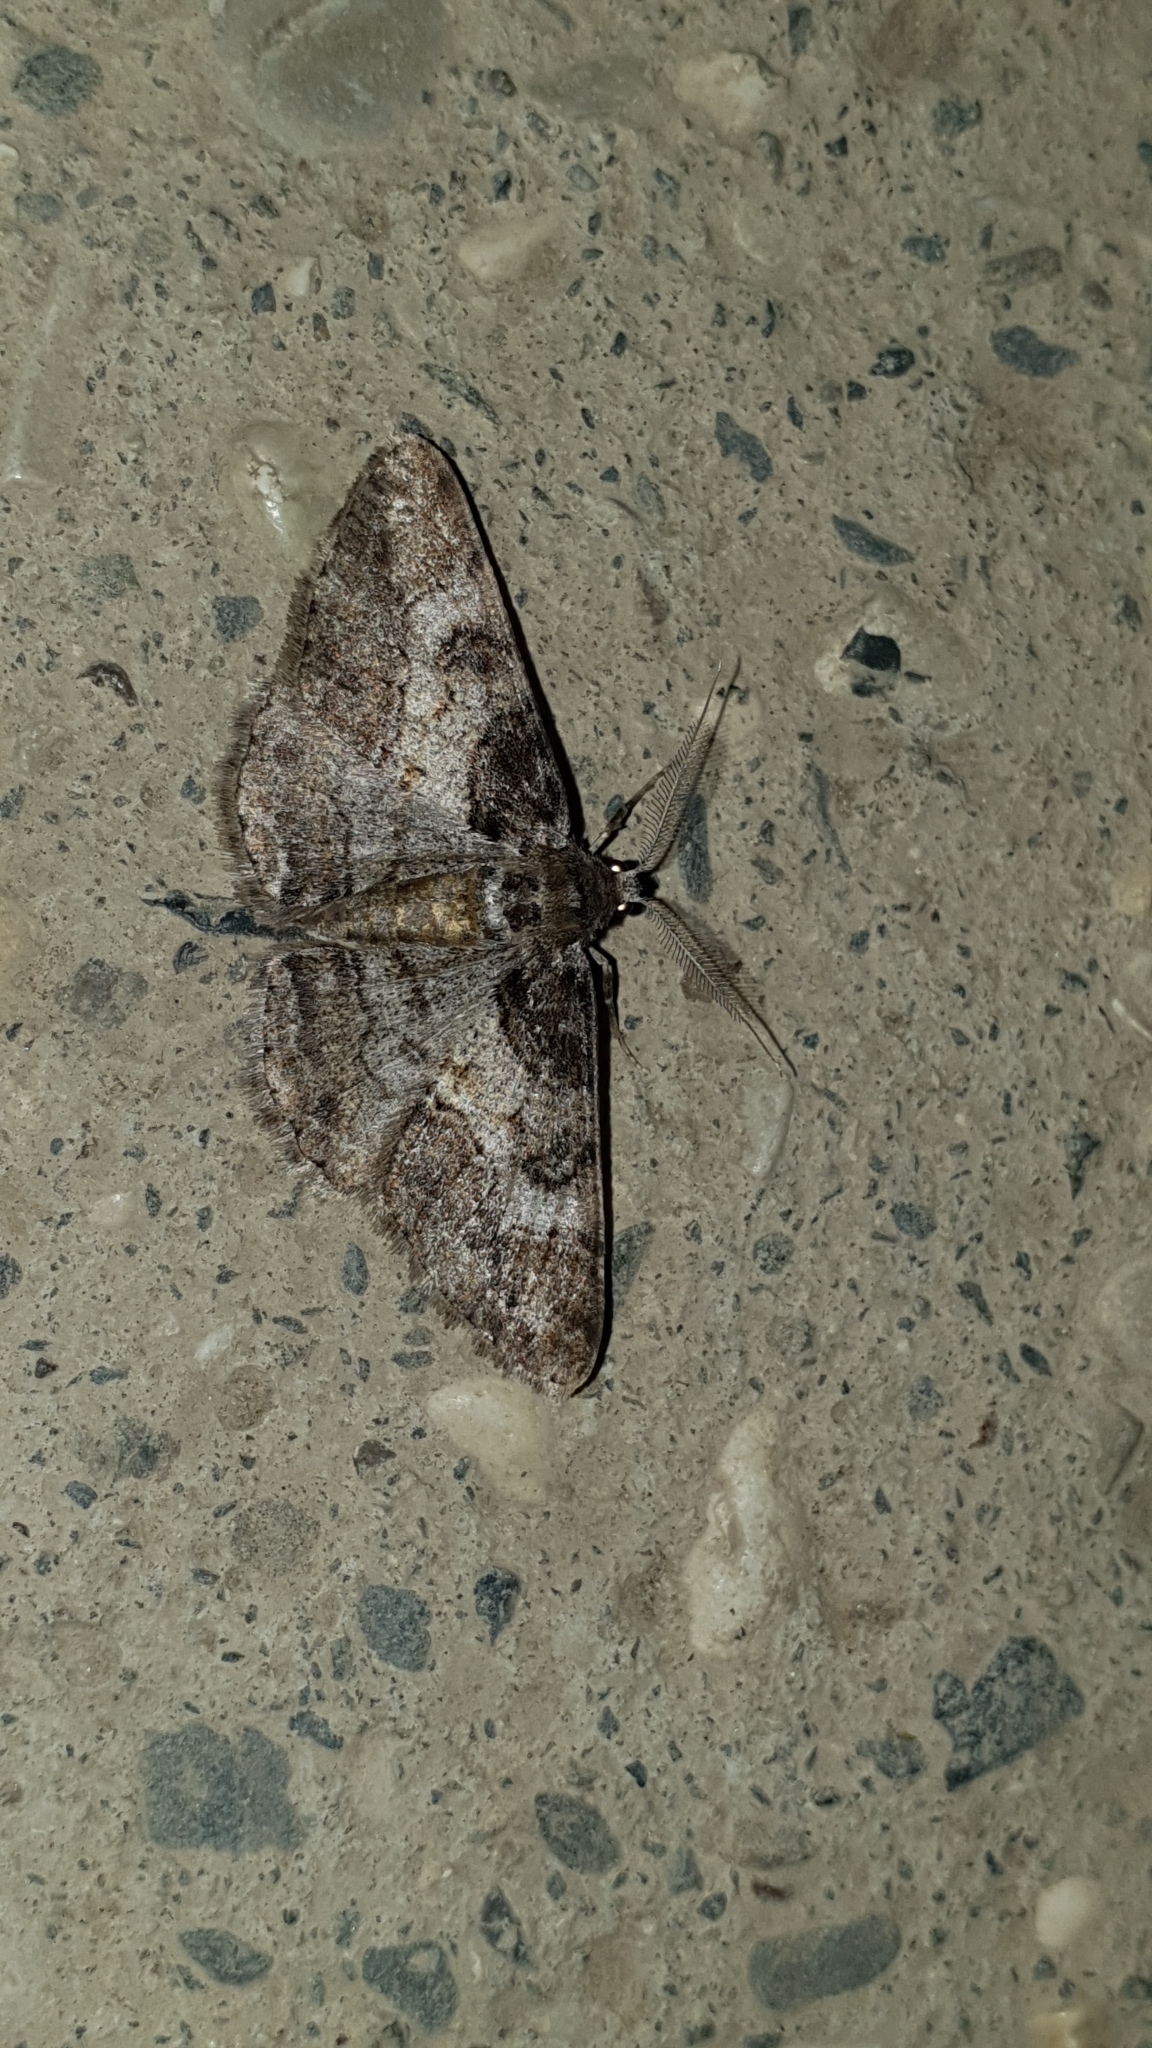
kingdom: Animalia
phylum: Arthropoda
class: Insecta
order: Lepidoptera
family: Geometridae
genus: Cleora
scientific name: Cleora cinctaria
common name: Ringed carpet
